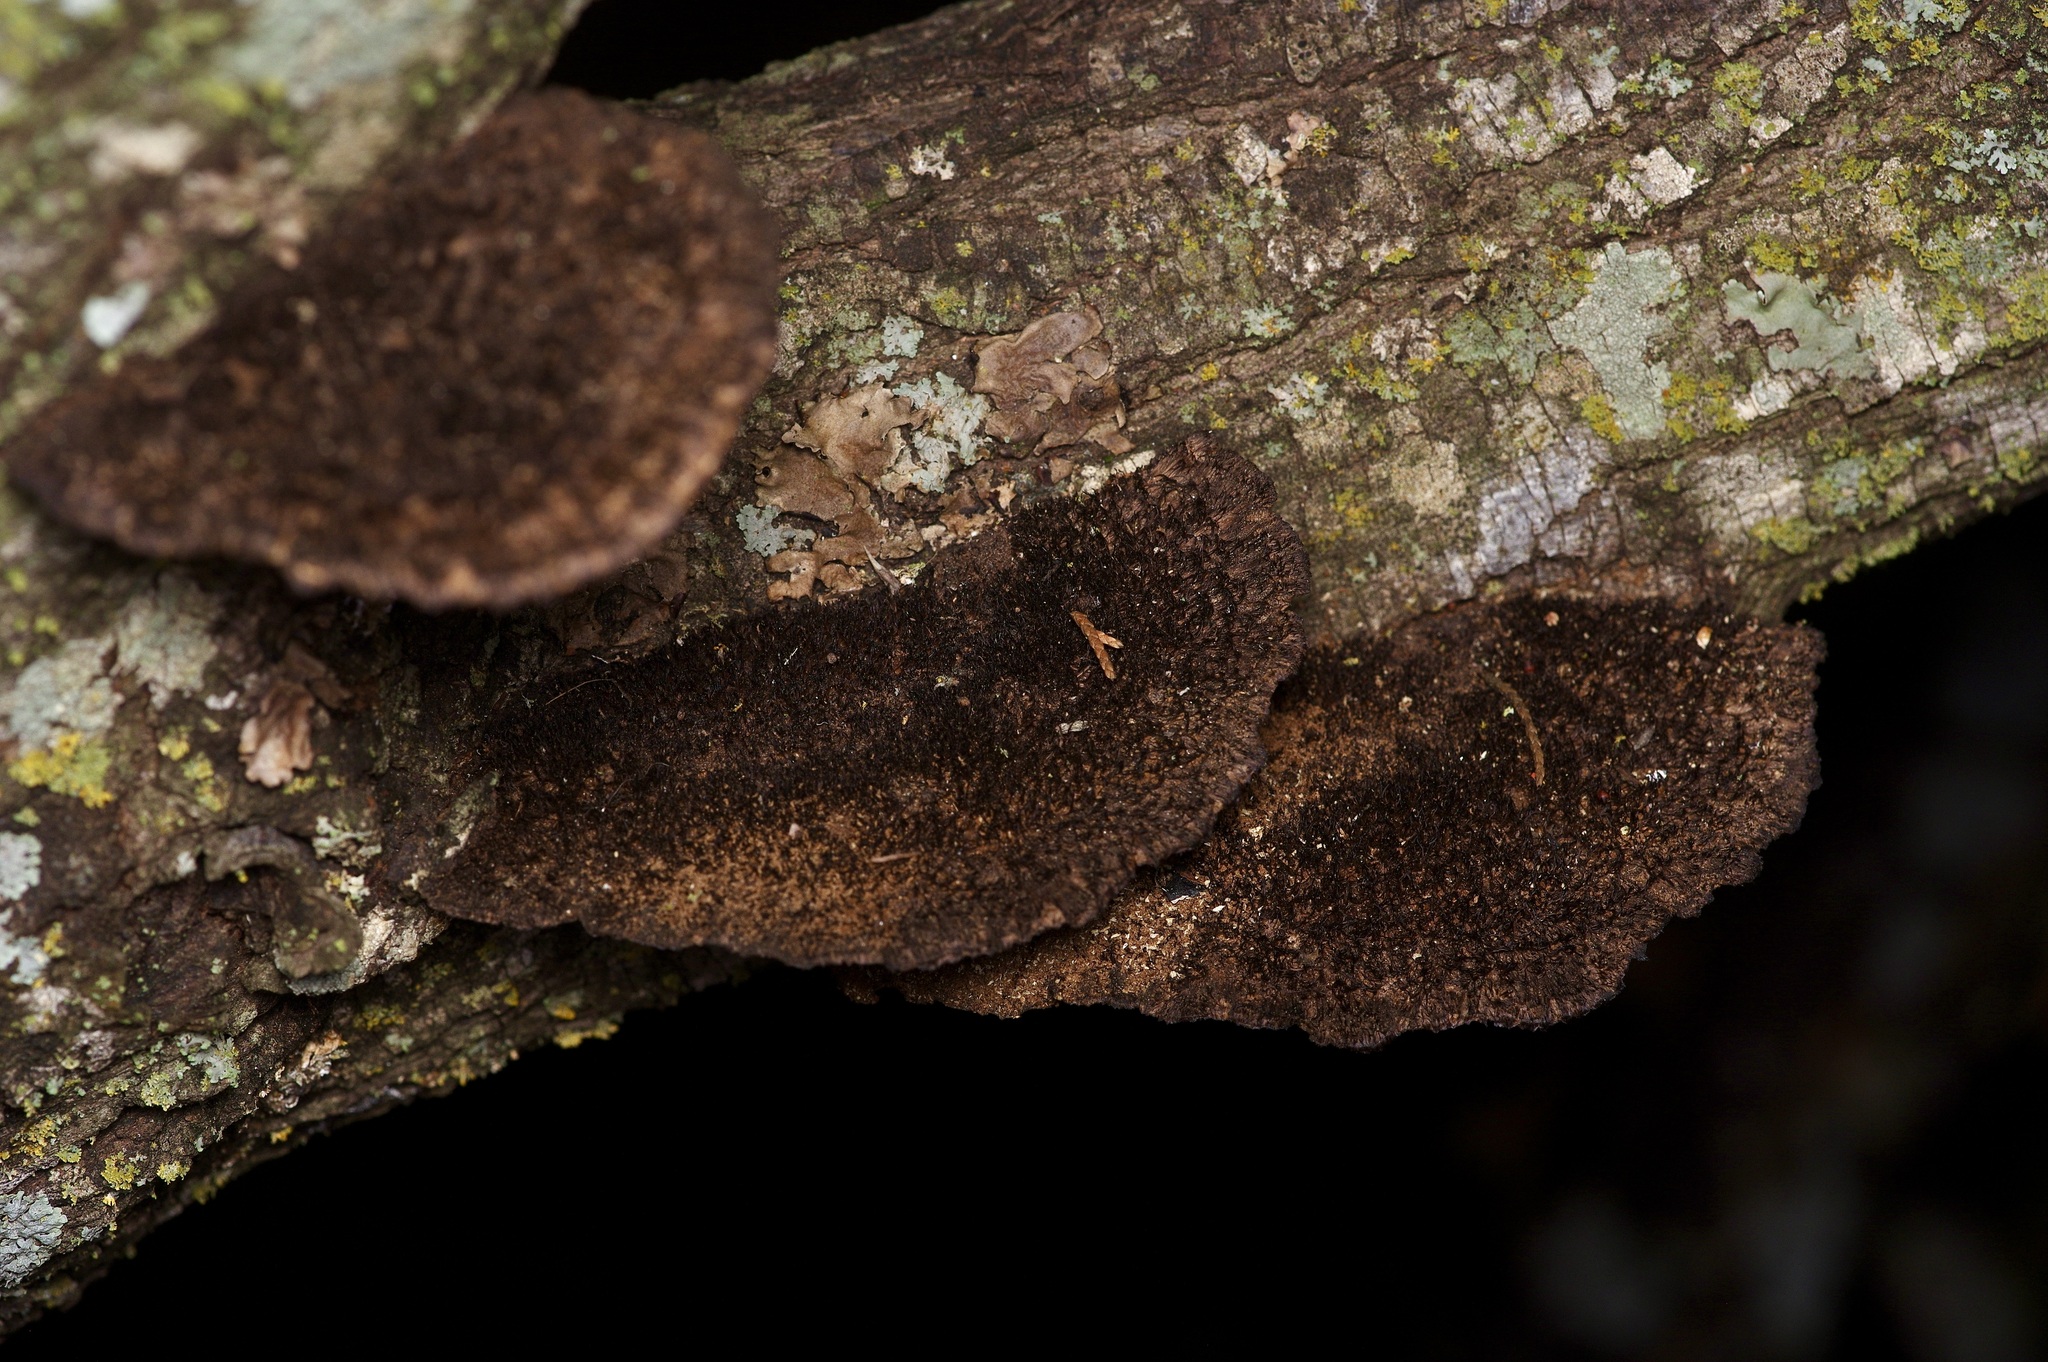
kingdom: Fungi
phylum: Basidiomycota
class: Agaricomycetes
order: Polyporales
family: Cerrenaceae
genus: Cerrena
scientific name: Cerrena hydnoides
